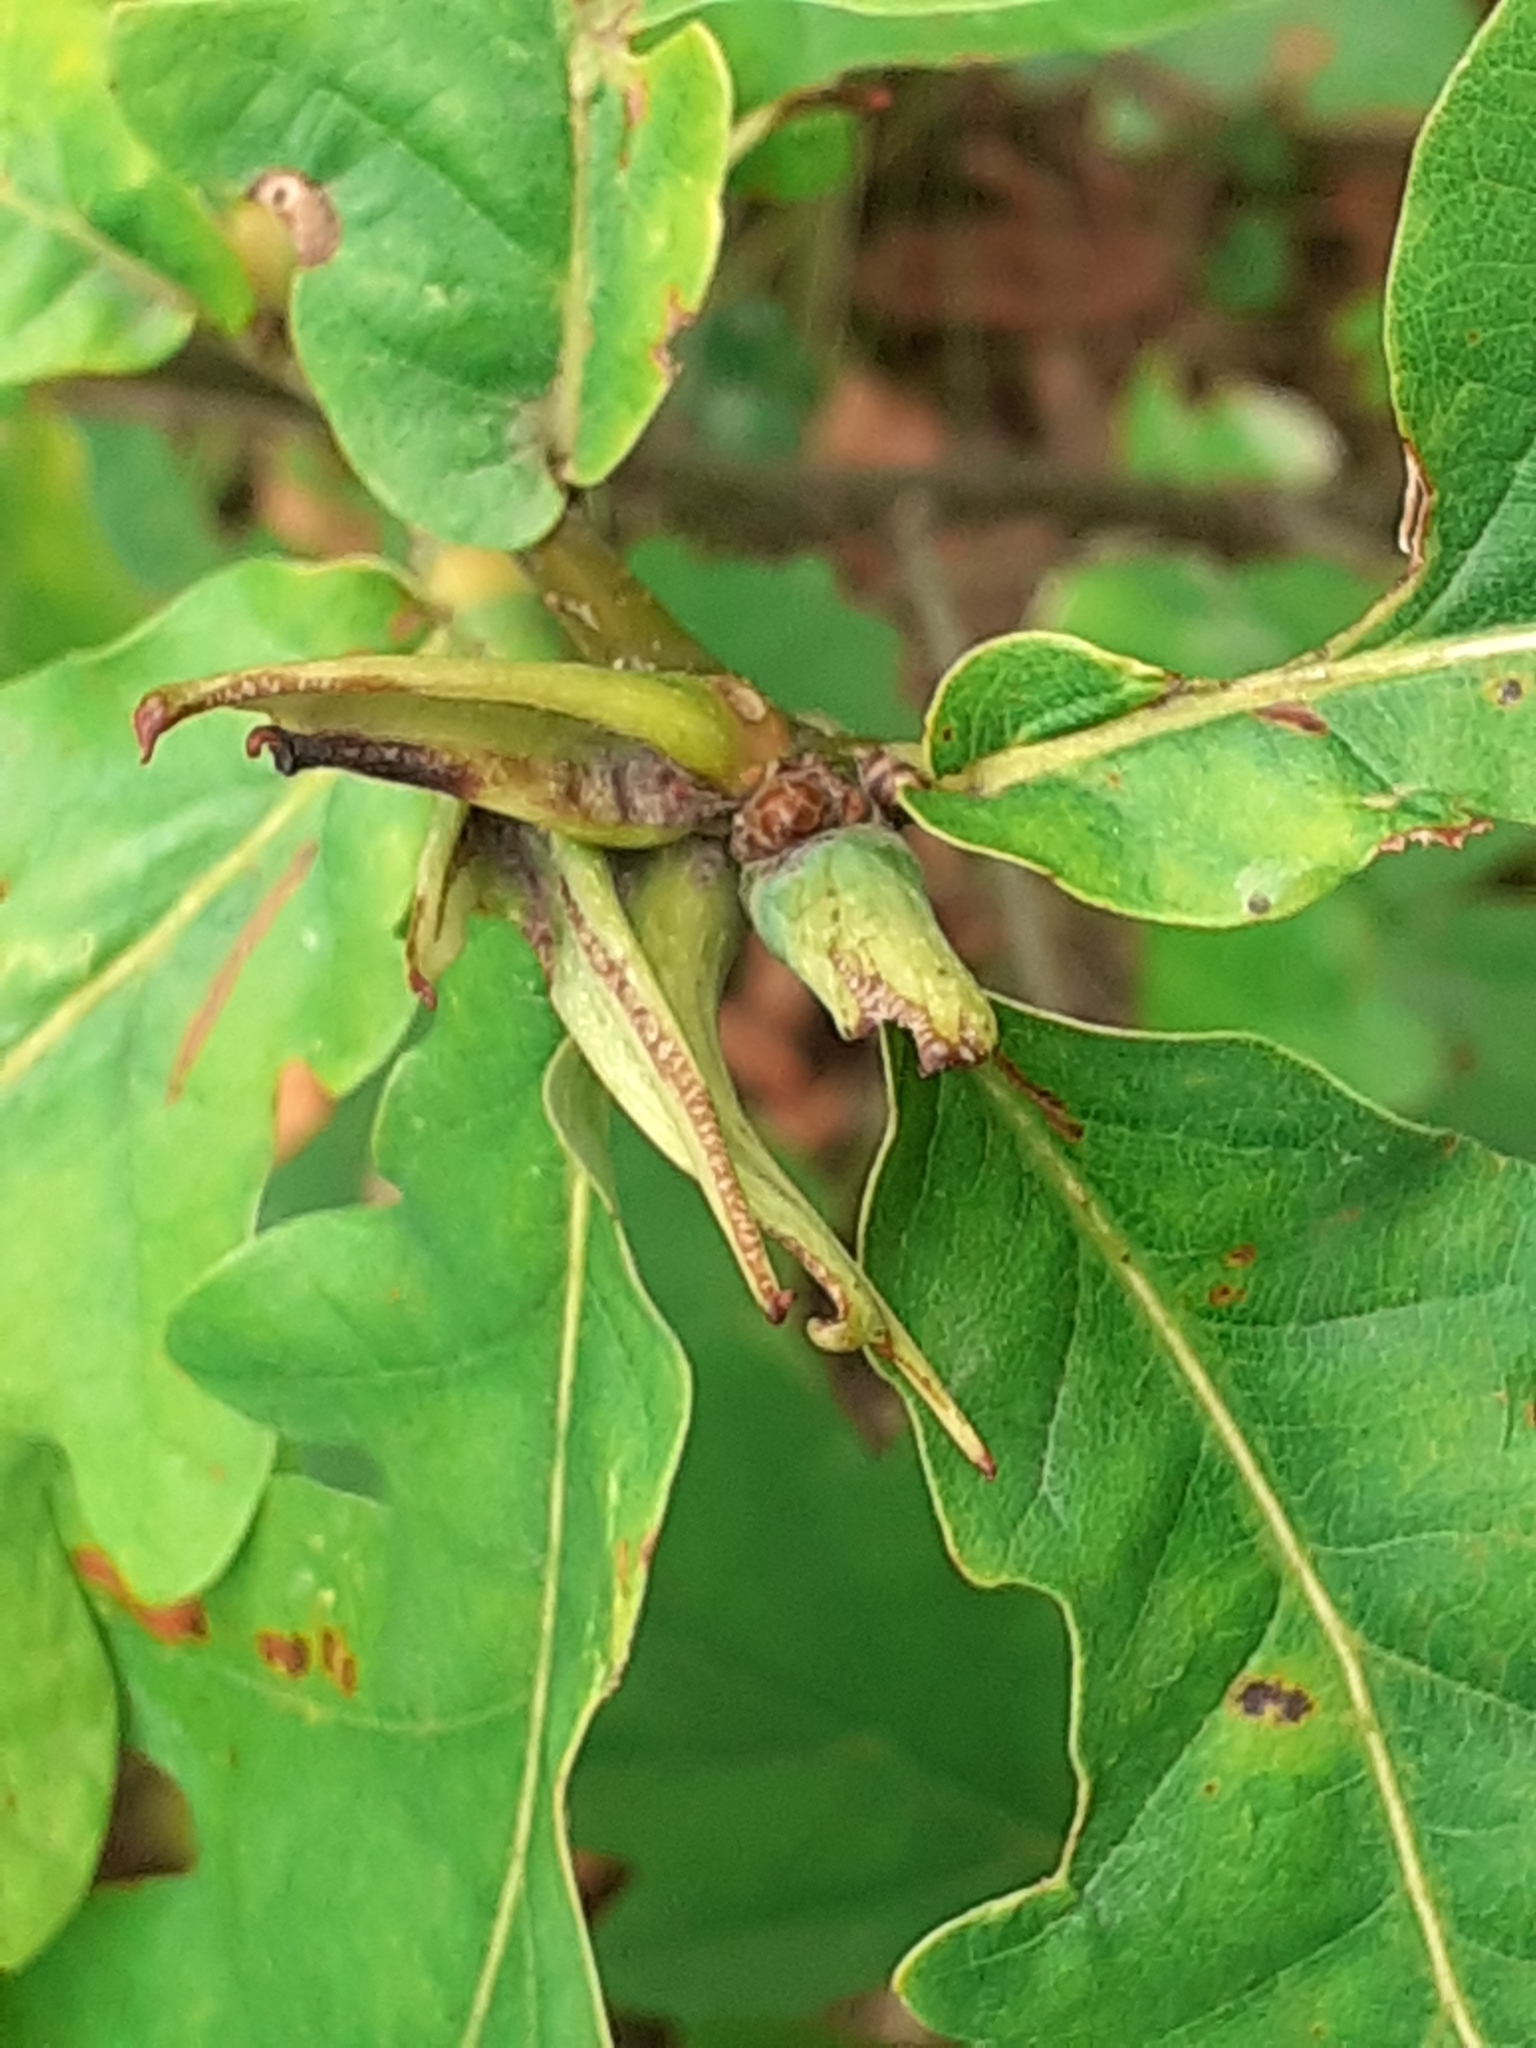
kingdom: Animalia
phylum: Arthropoda
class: Insecta
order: Hymenoptera
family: Cynipidae
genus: Andricus
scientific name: Andricus aries
